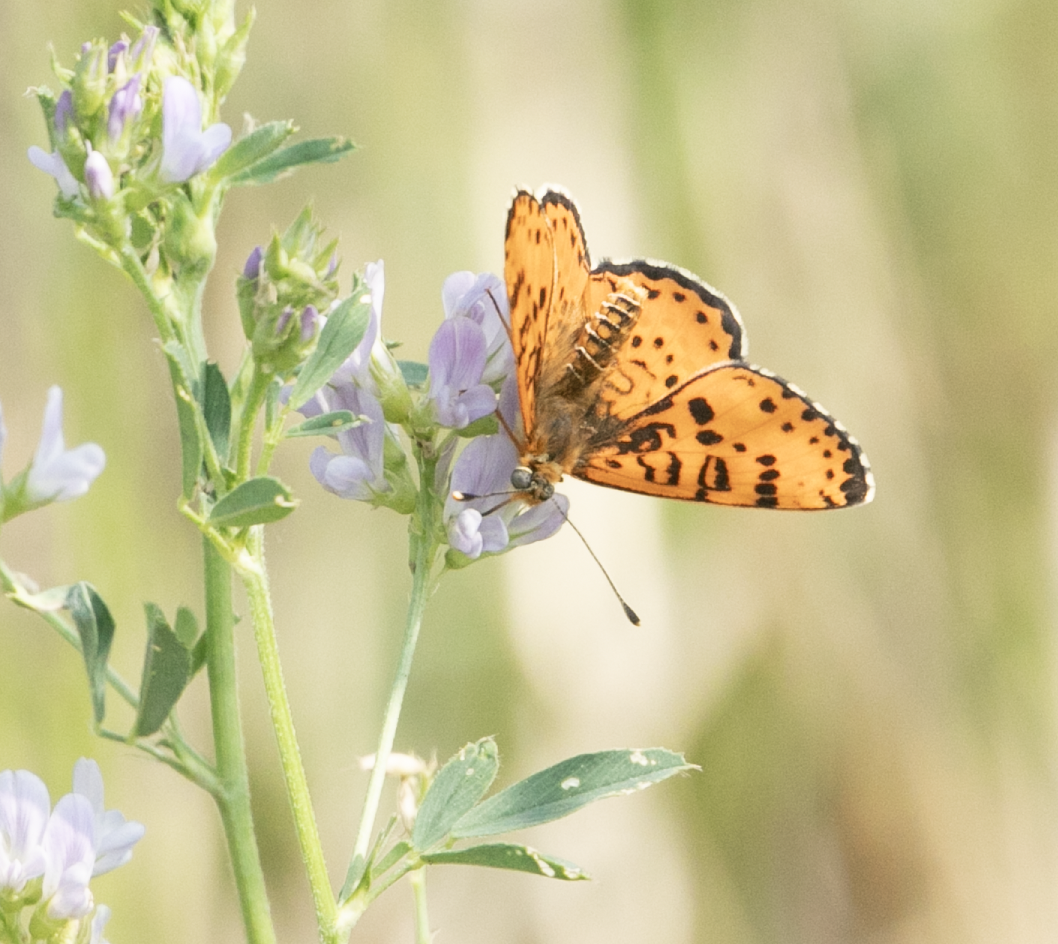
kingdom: Animalia
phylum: Arthropoda
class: Insecta
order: Lepidoptera
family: Nymphalidae
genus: Melitaea
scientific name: Melitaea didyma
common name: Spotted fritillary
